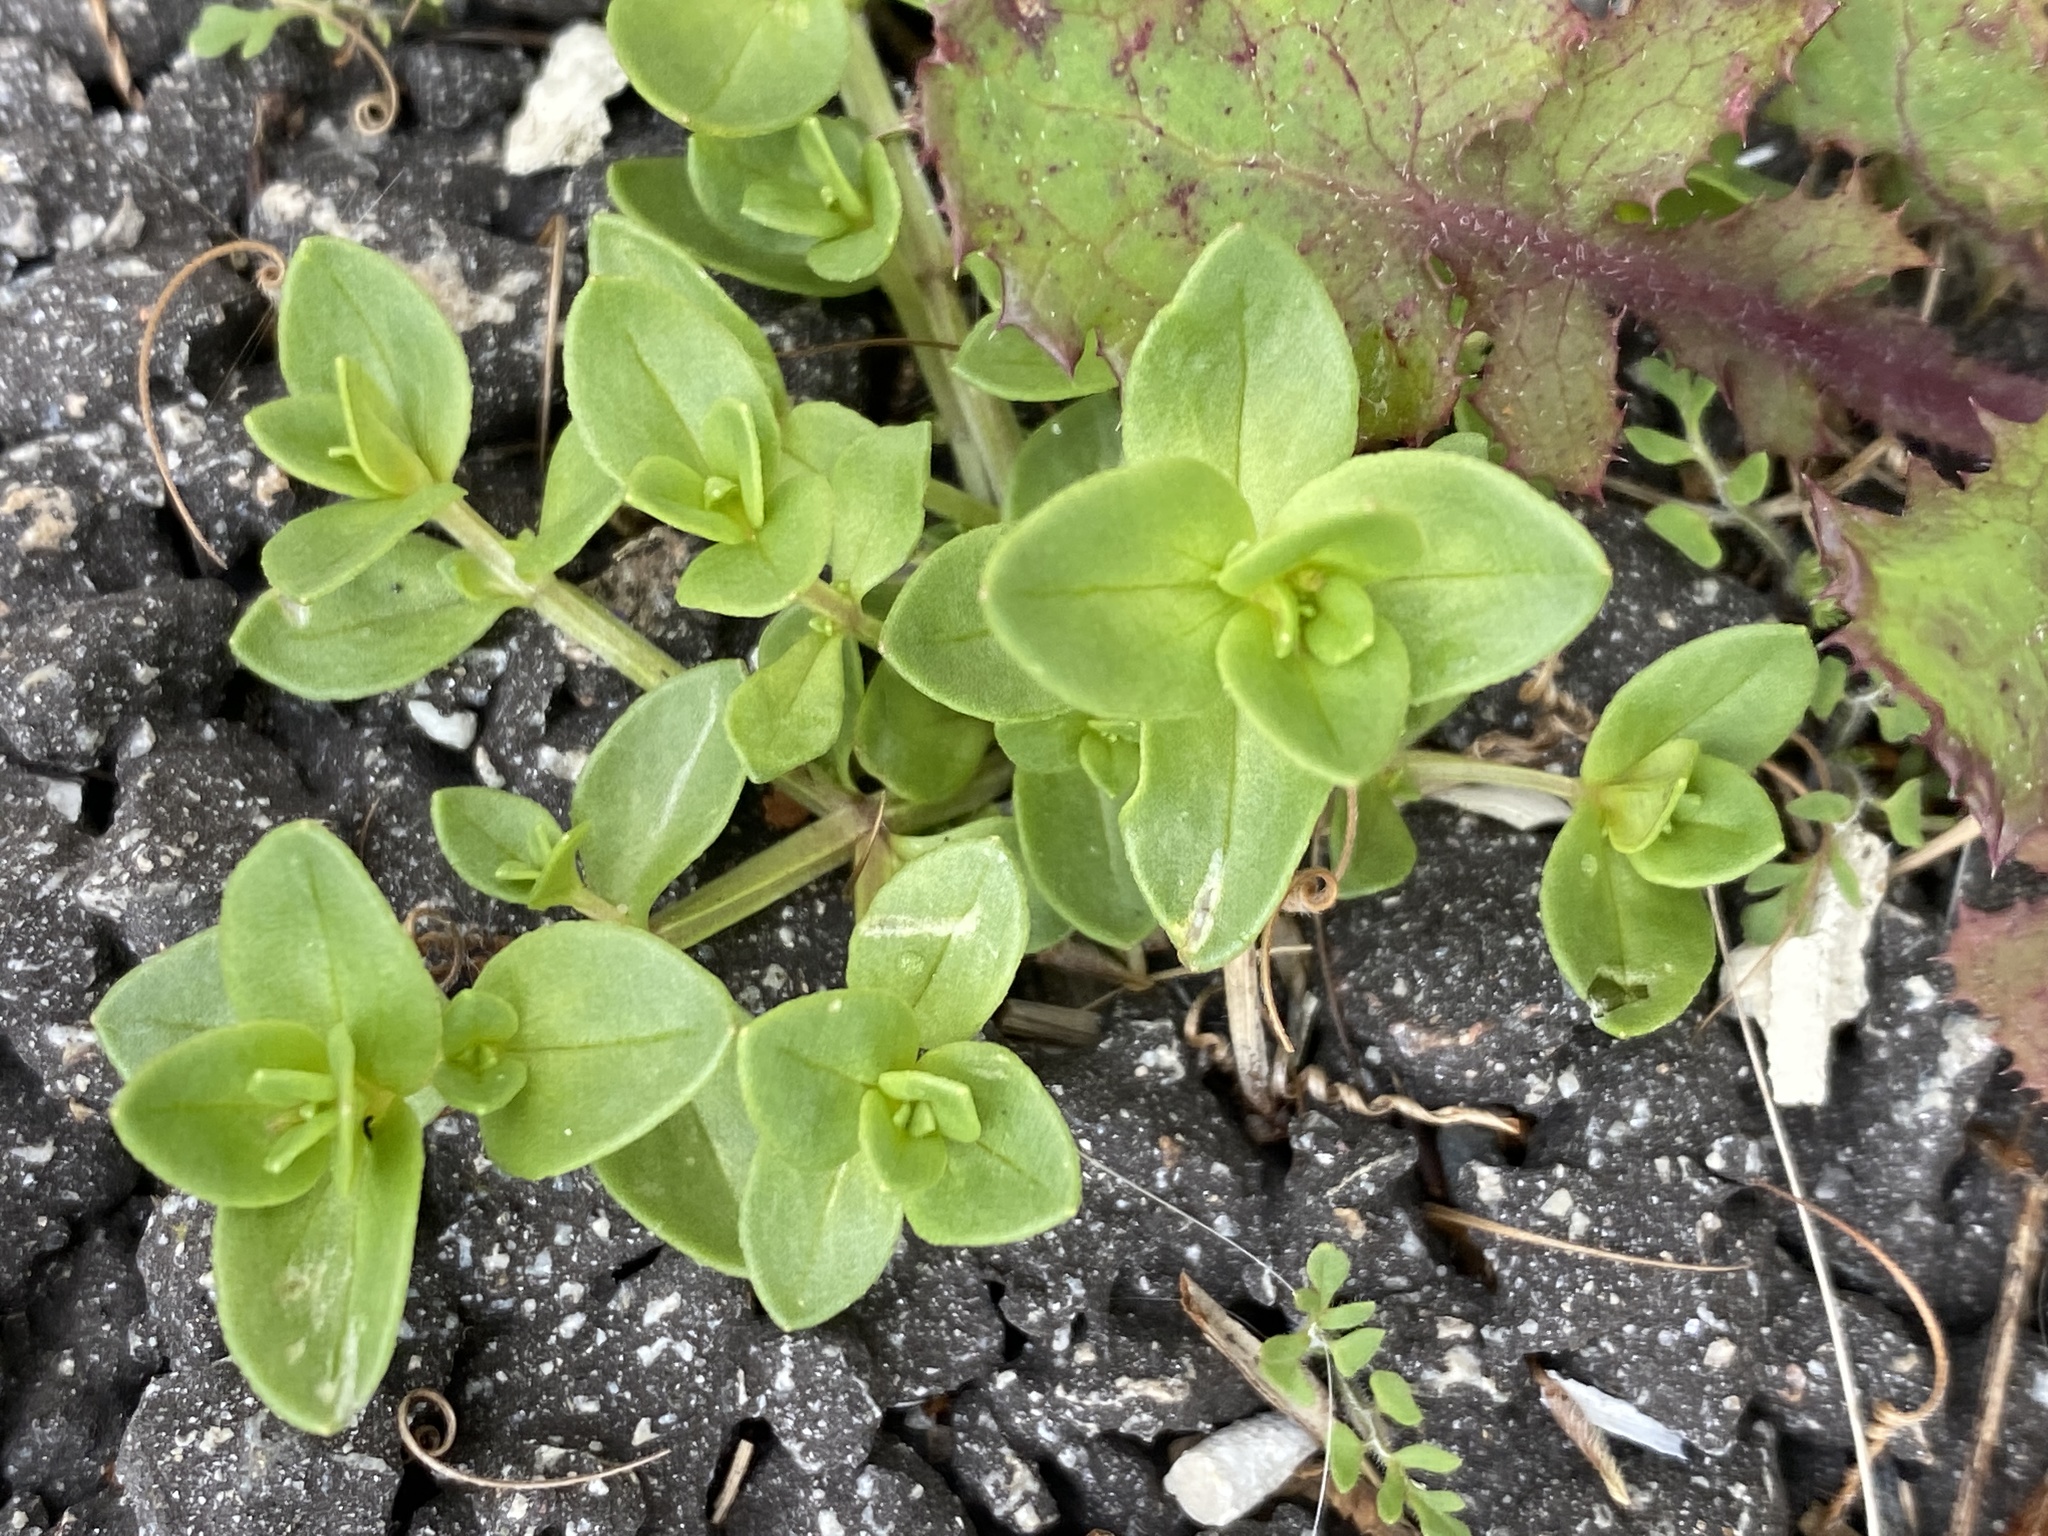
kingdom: Plantae
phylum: Tracheophyta
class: Magnoliopsida
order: Caryophyllales
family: Caryophyllaceae
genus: Honckenya
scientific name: Honckenya peploides
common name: Sea sandwort
